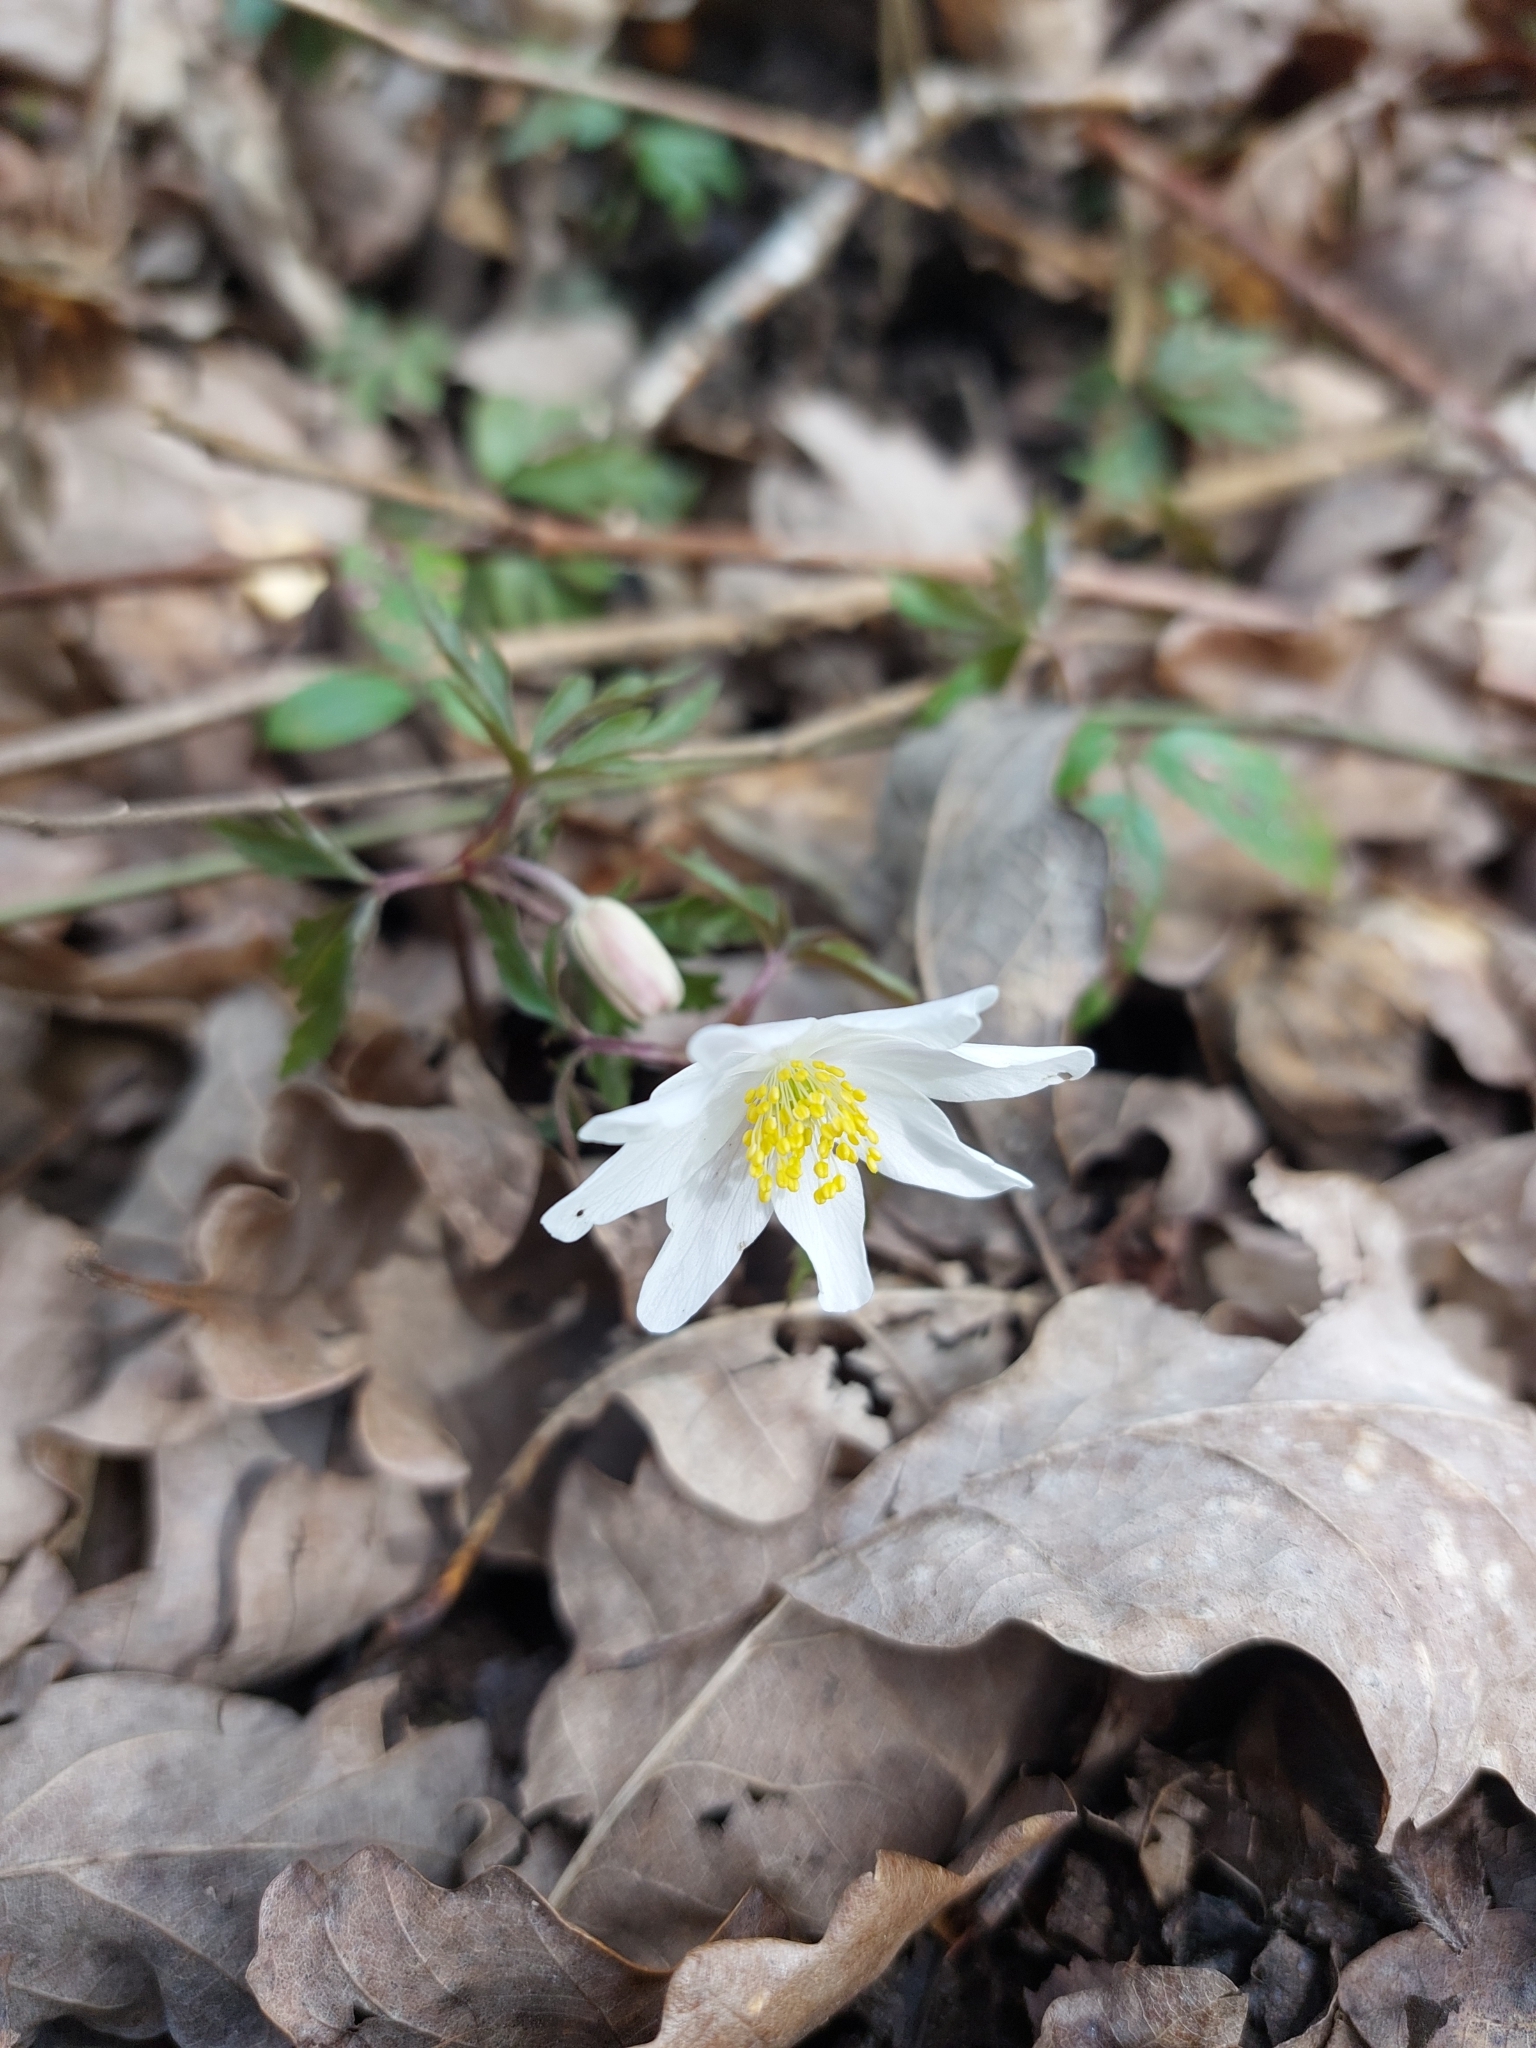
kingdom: Plantae
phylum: Tracheophyta
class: Magnoliopsida
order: Ranunculales
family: Ranunculaceae
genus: Anemone
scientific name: Anemone nemorosa
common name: Wood anemone
